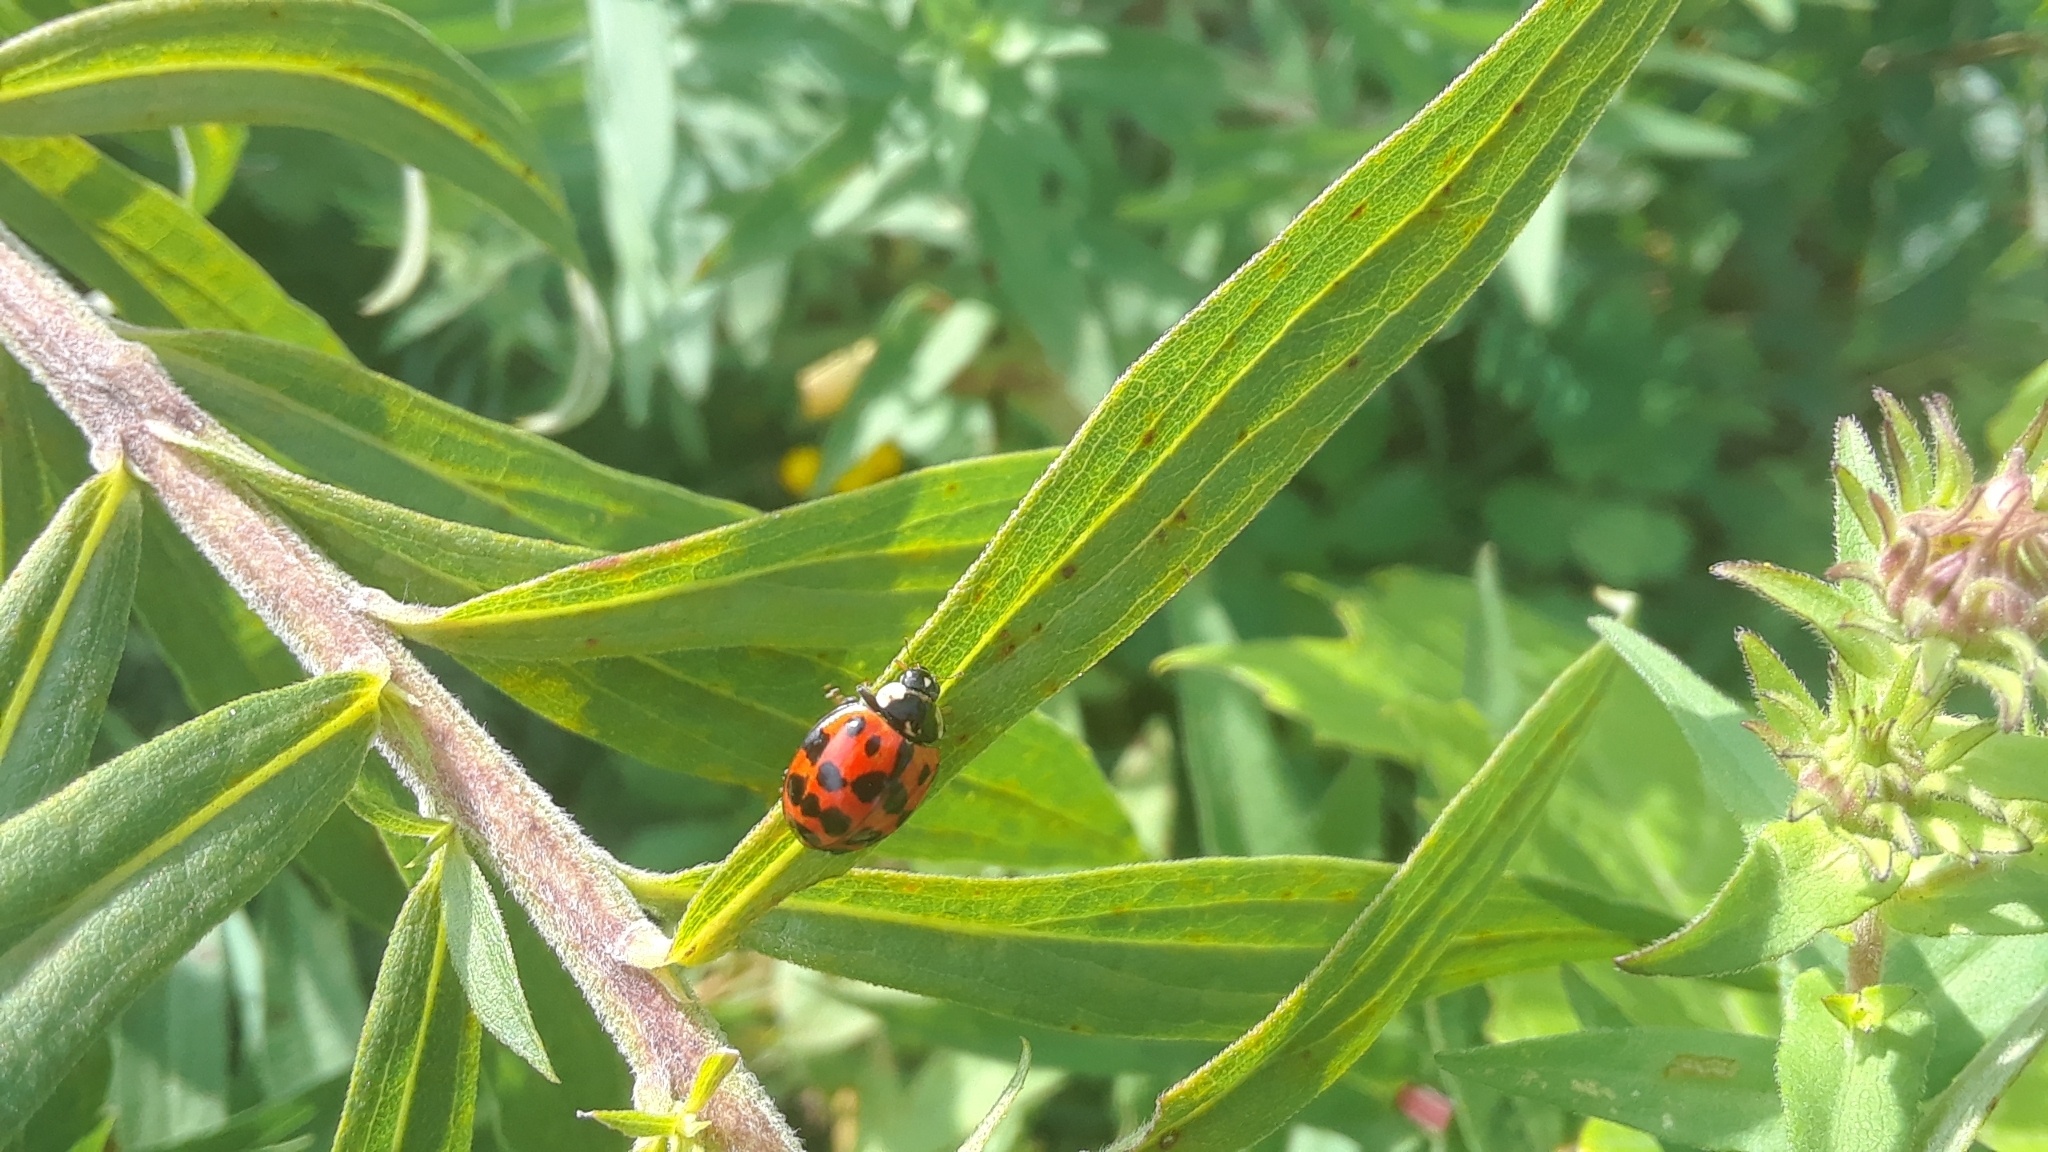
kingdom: Animalia
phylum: Arthropoda
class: Insecta
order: Coleoptera
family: Coccinellidae
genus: Harmonia
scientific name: Harmonia axyridis
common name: Harlequin ladybird
